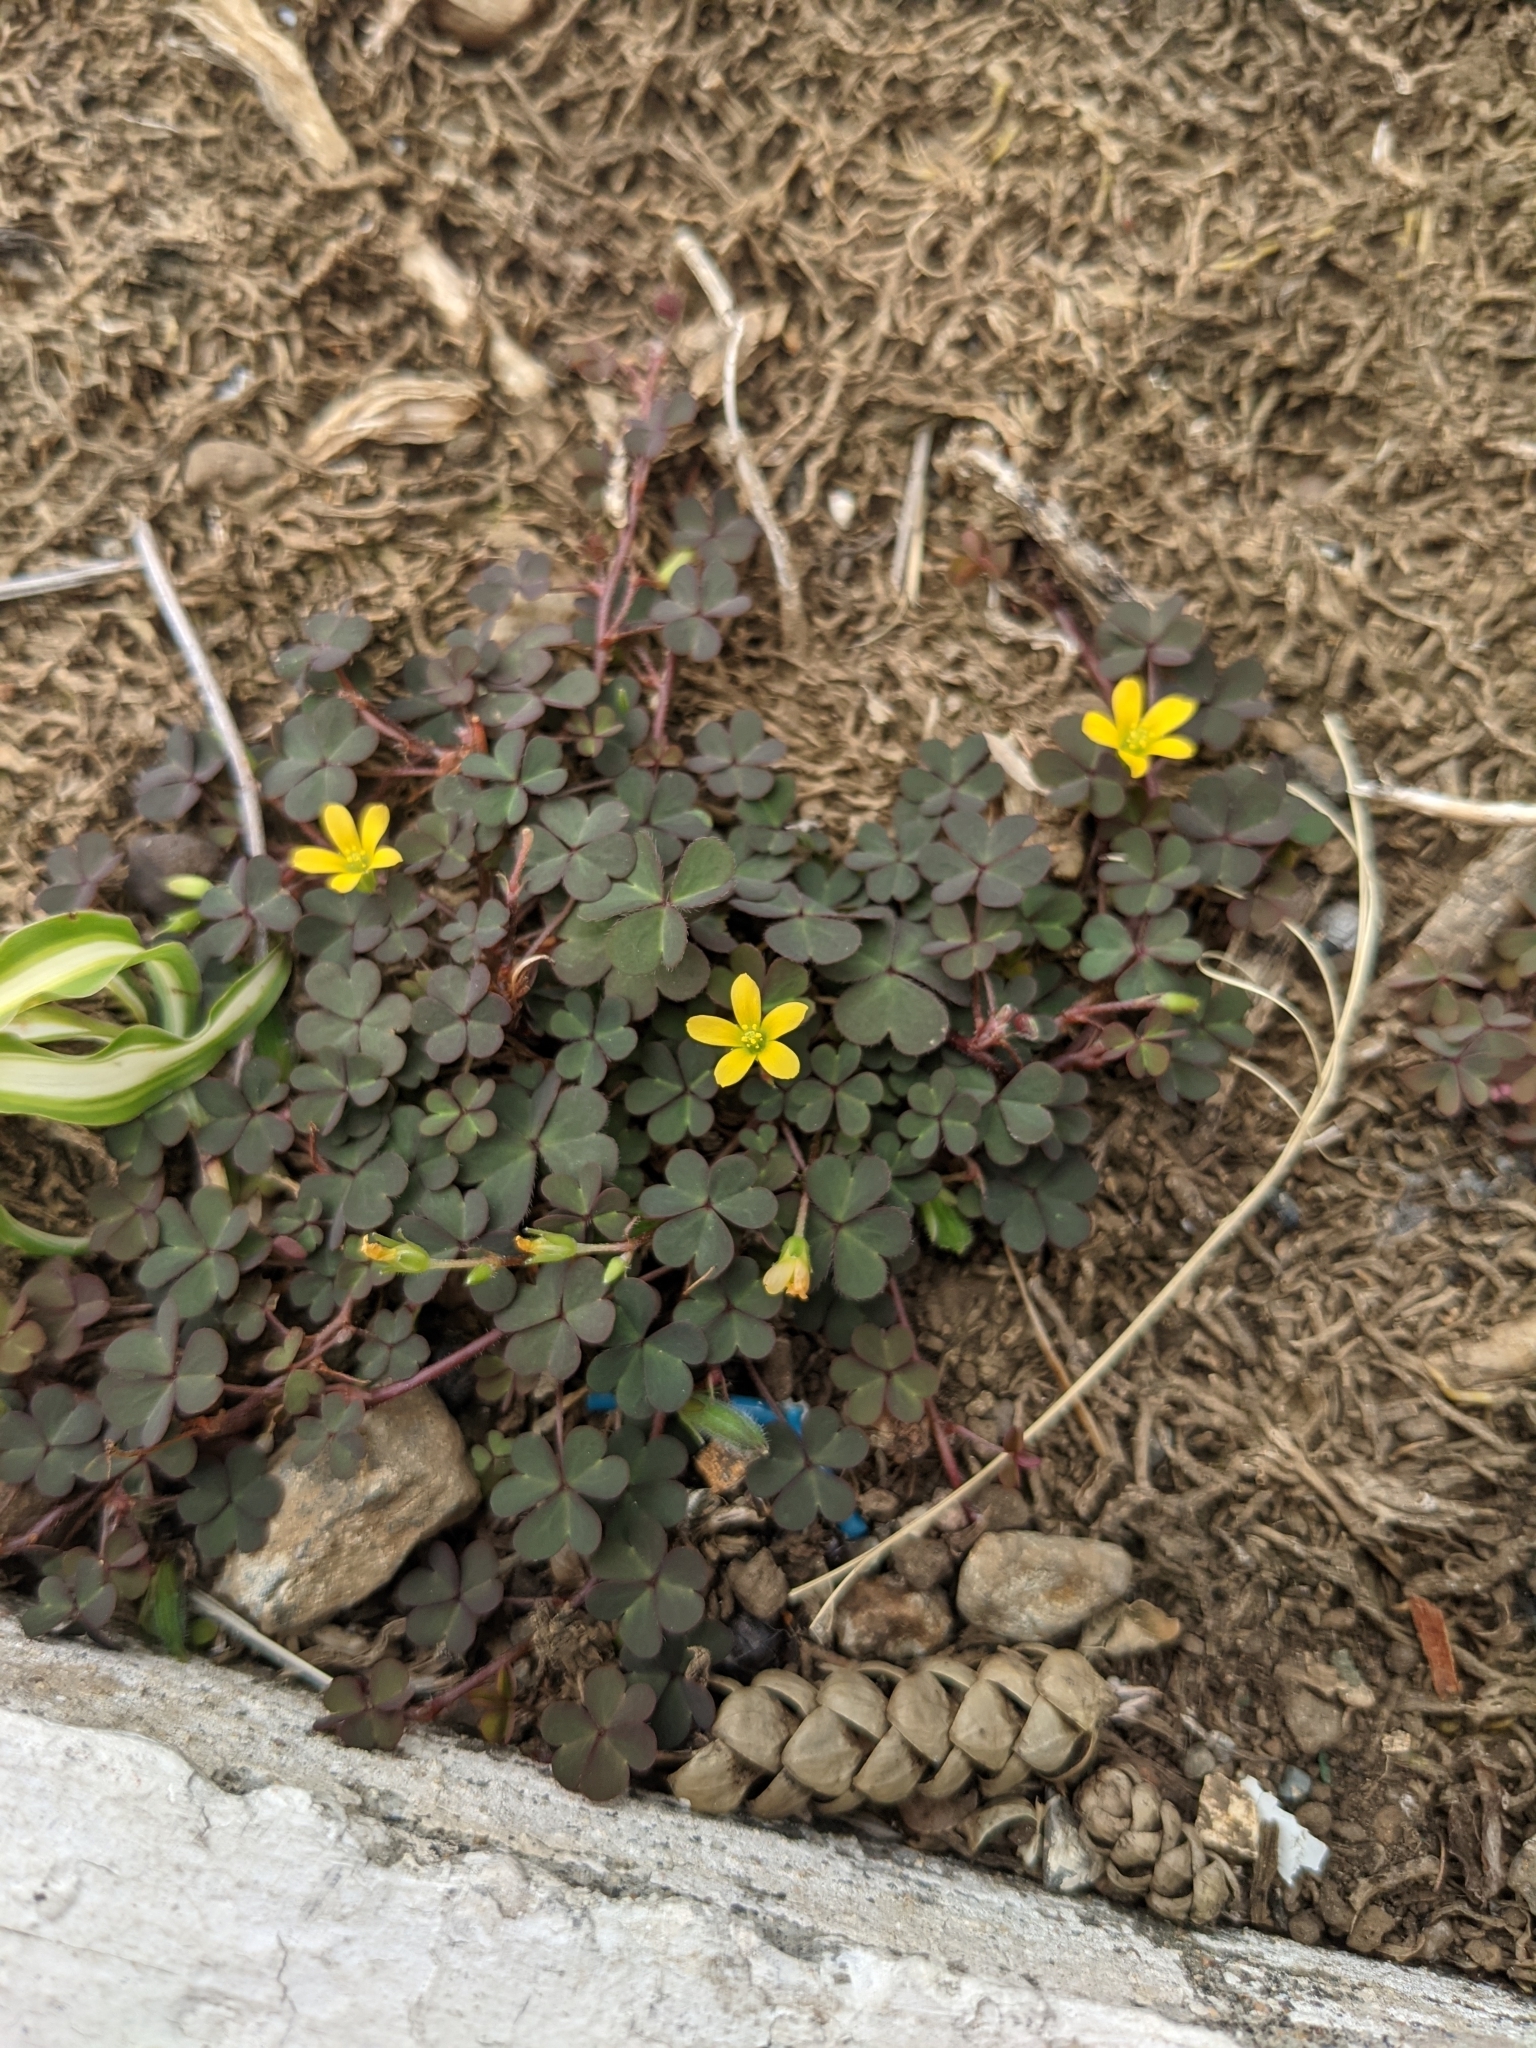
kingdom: Plantae
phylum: Tracheophyta
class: Magnoliopsida
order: Oxalidales
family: Oxalidaceae
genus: Oxalis
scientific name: Oxalis corniculata
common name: Procumbent yellow-sorrel
